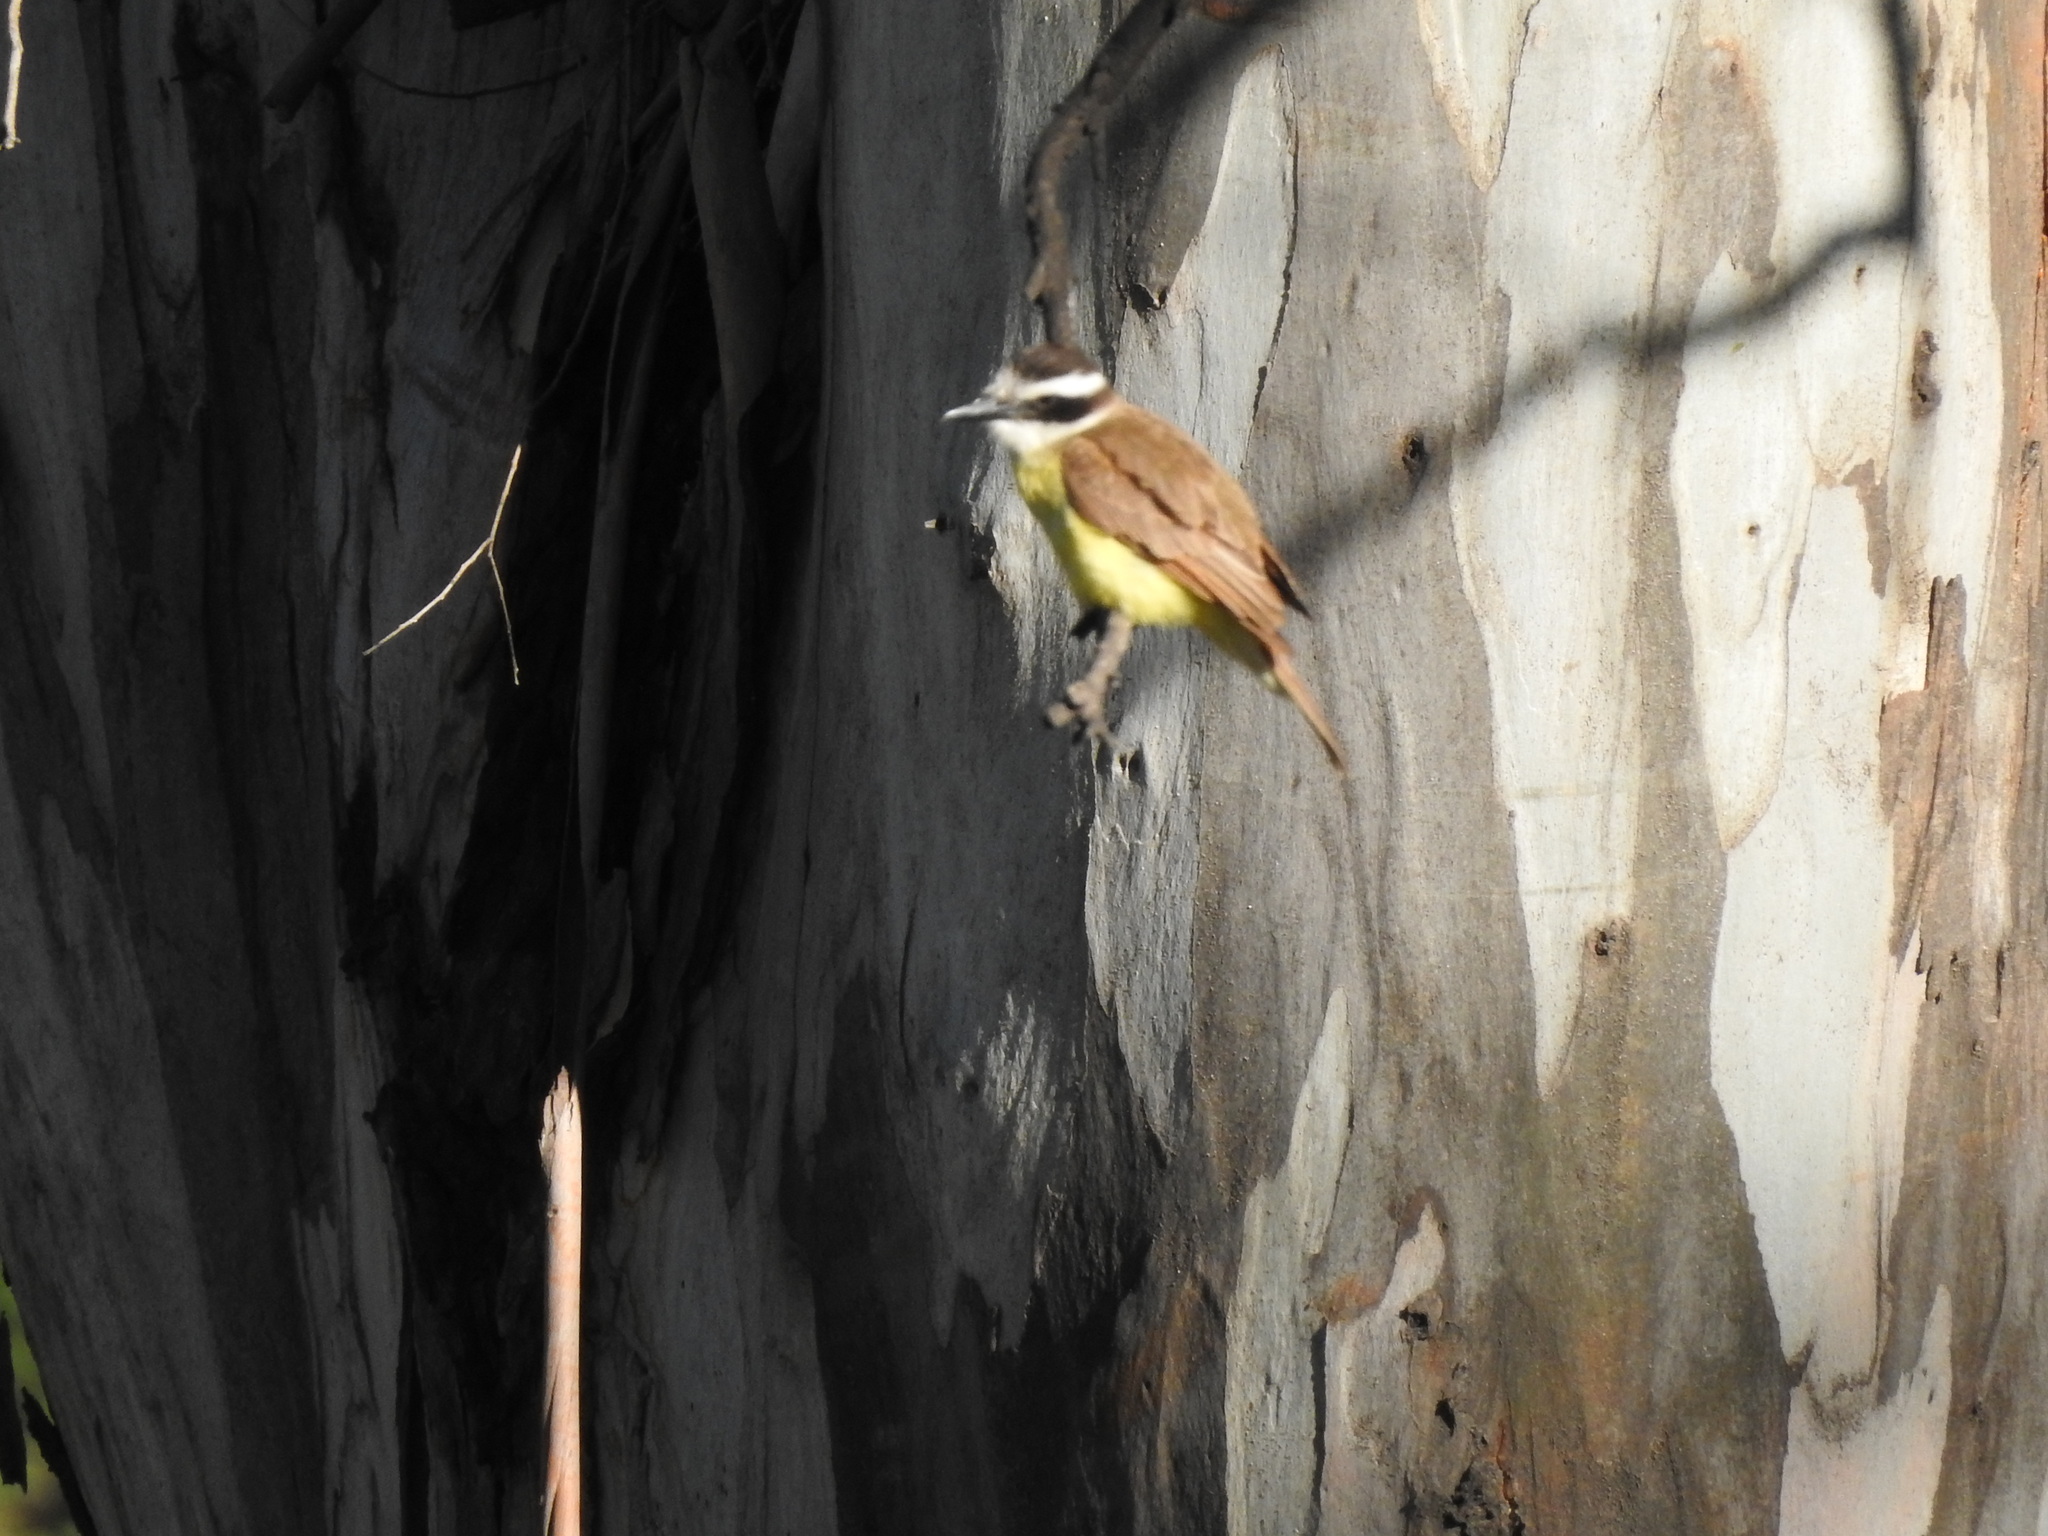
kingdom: Animalia
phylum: Chordata
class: Aves
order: Passeriformes
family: Tyrannidae
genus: Pitangus
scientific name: Pitangus sulphuratus
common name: Great kiskadee
